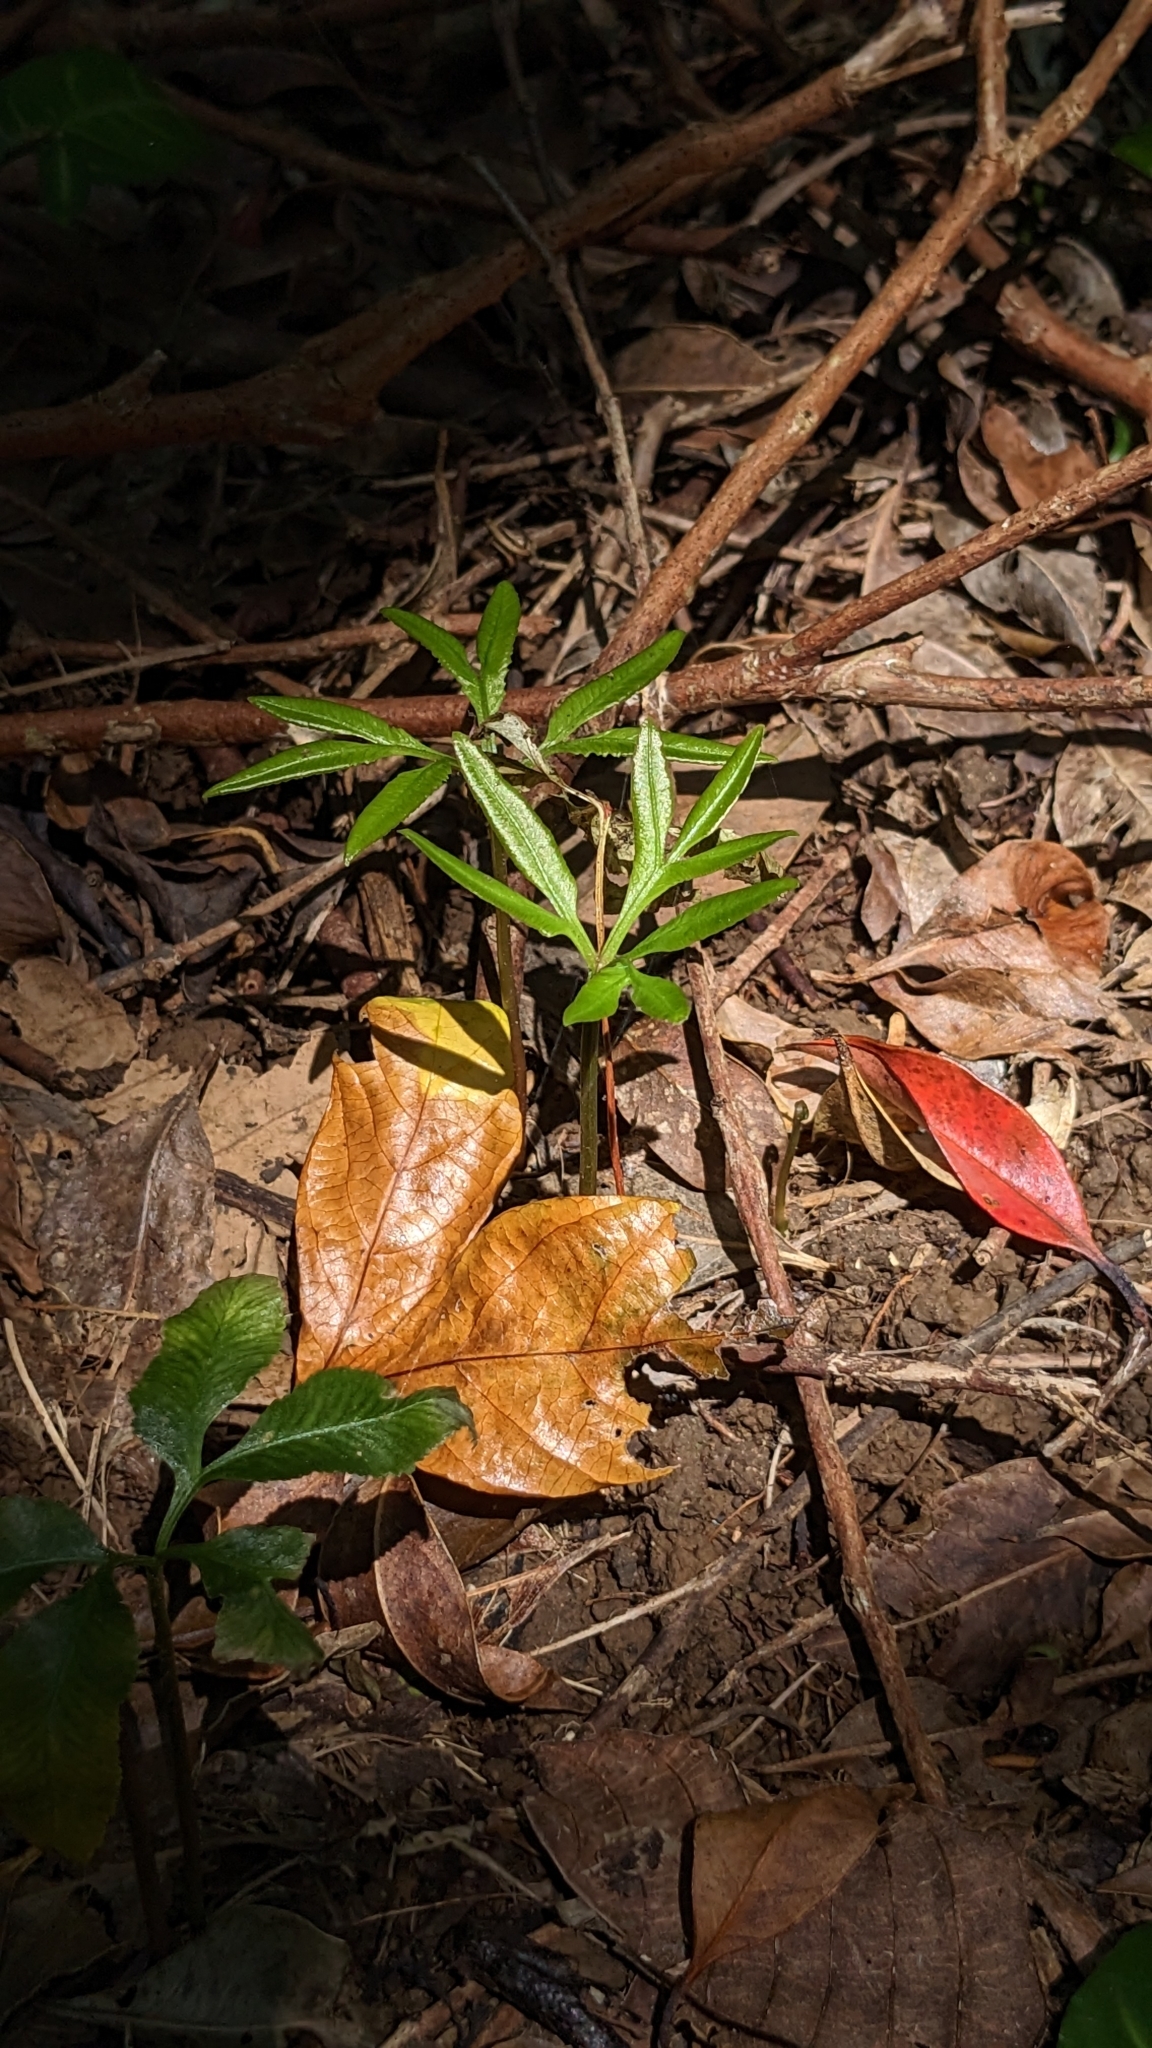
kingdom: Plantae
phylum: Tracheophyta
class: Polypodiopsida
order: Ophioglossales
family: Ophioglossaceae
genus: Helminthostachys
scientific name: Helminthostachys zeylanica
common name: Flowering fern
